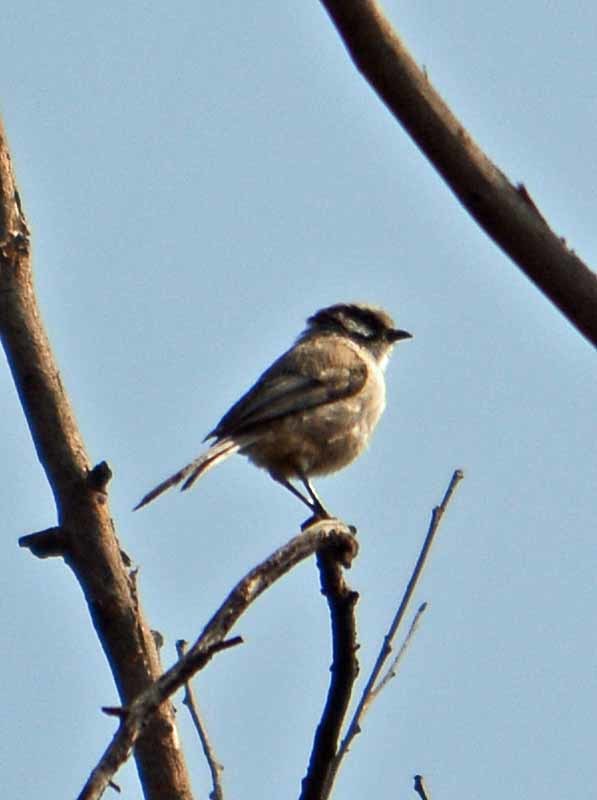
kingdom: Animalia
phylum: Chordata
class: Aves
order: Passeriformes
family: Aegithalidae
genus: Psaltriparus
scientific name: Psaltriparus minimus
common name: American bushtit
